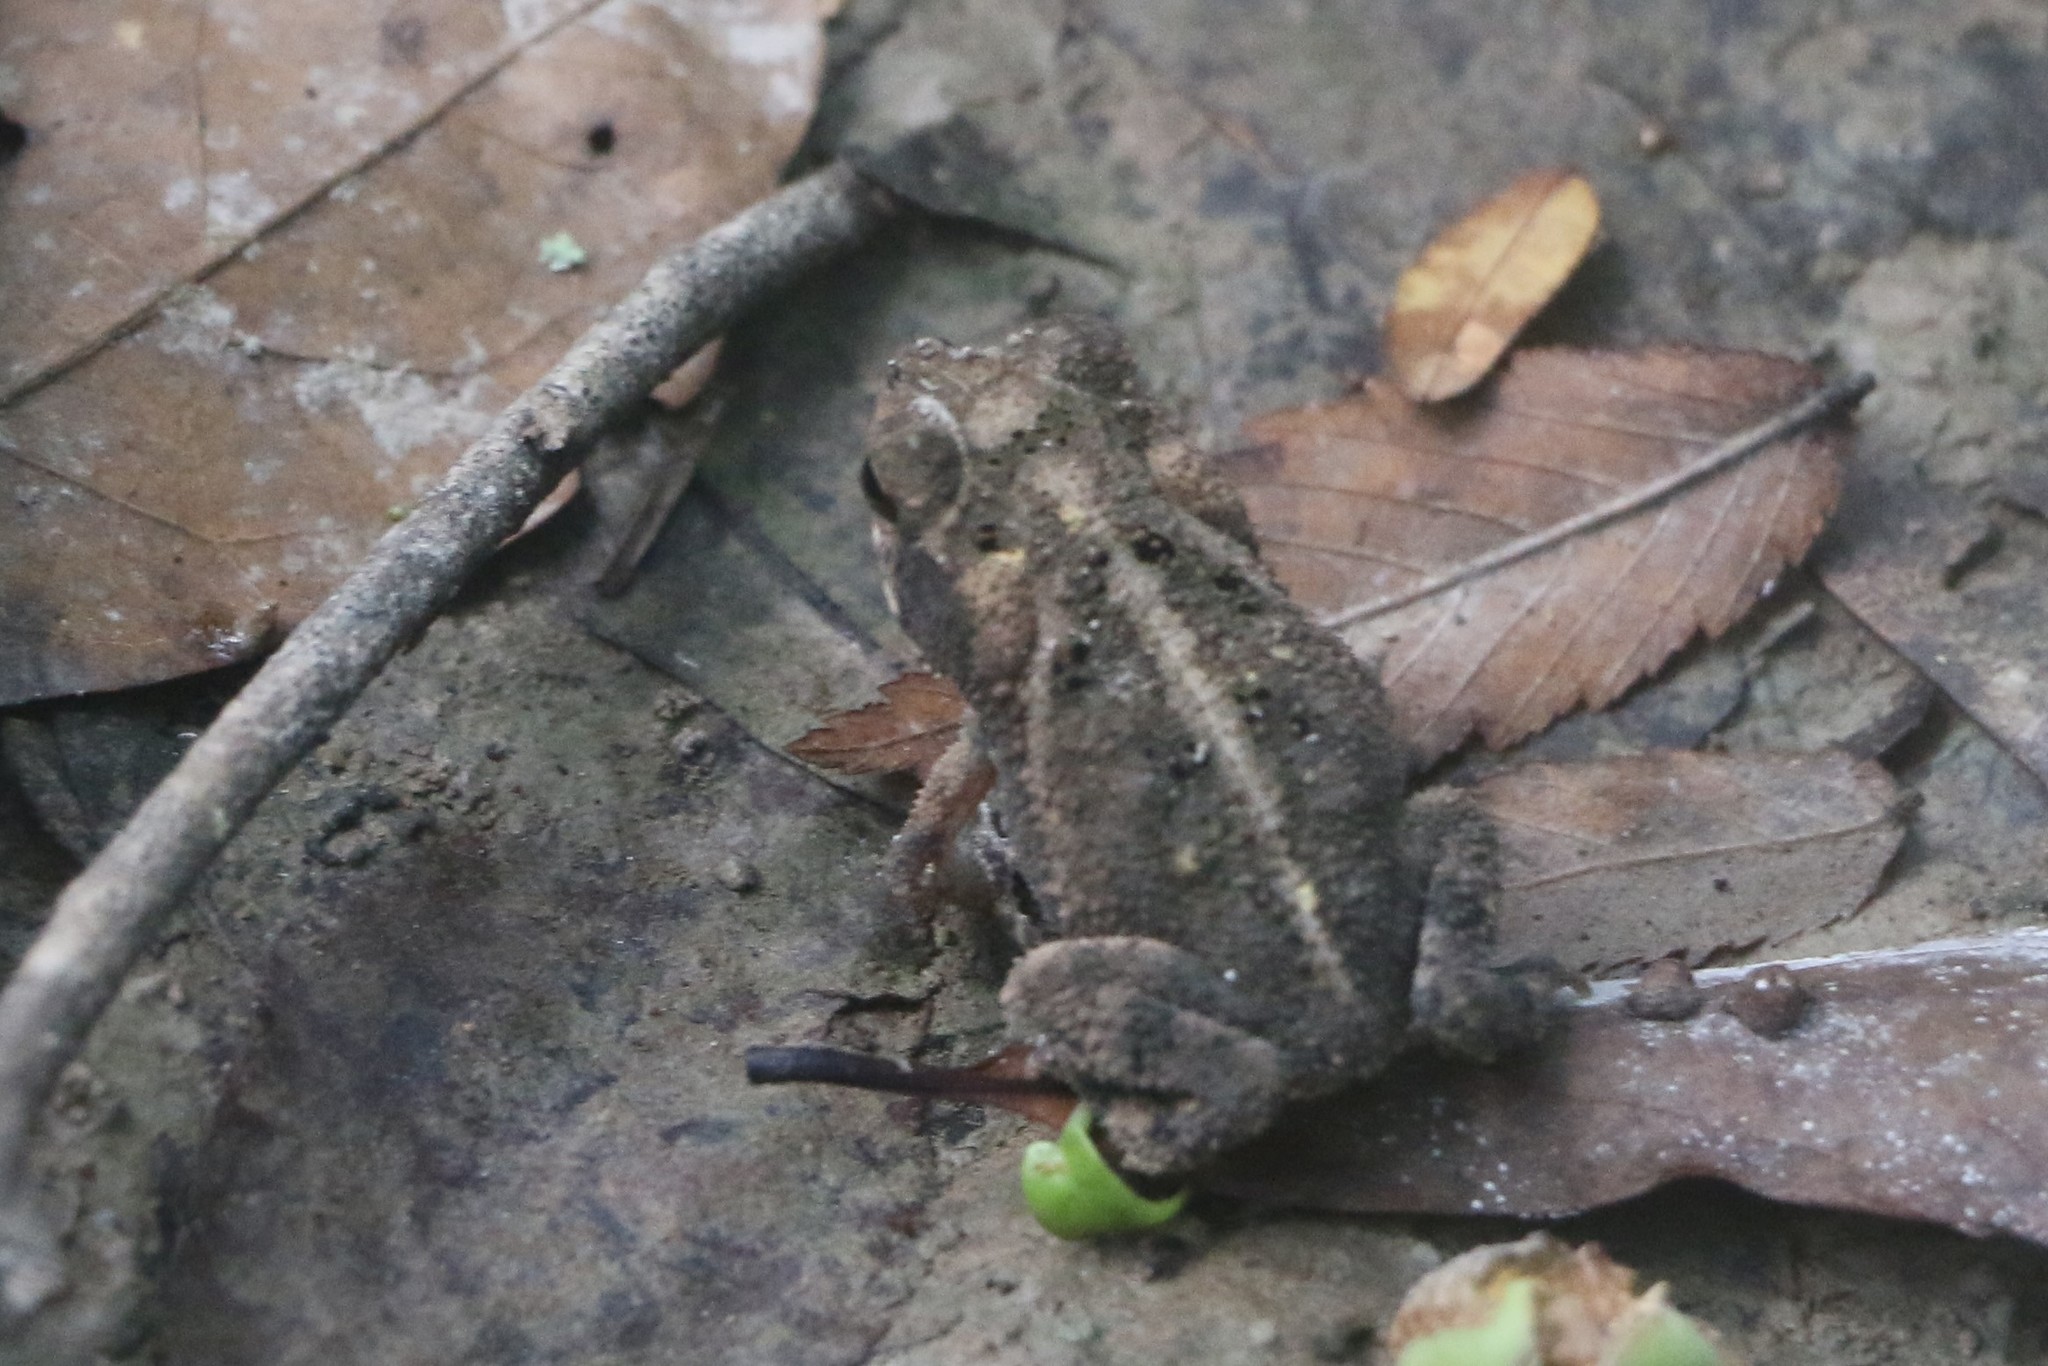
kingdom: Animalia
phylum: Chordata
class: Amphibia
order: Anura
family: Bufonidae
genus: Incilius
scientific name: Incilius nebulifer
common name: Gulf coast toad
